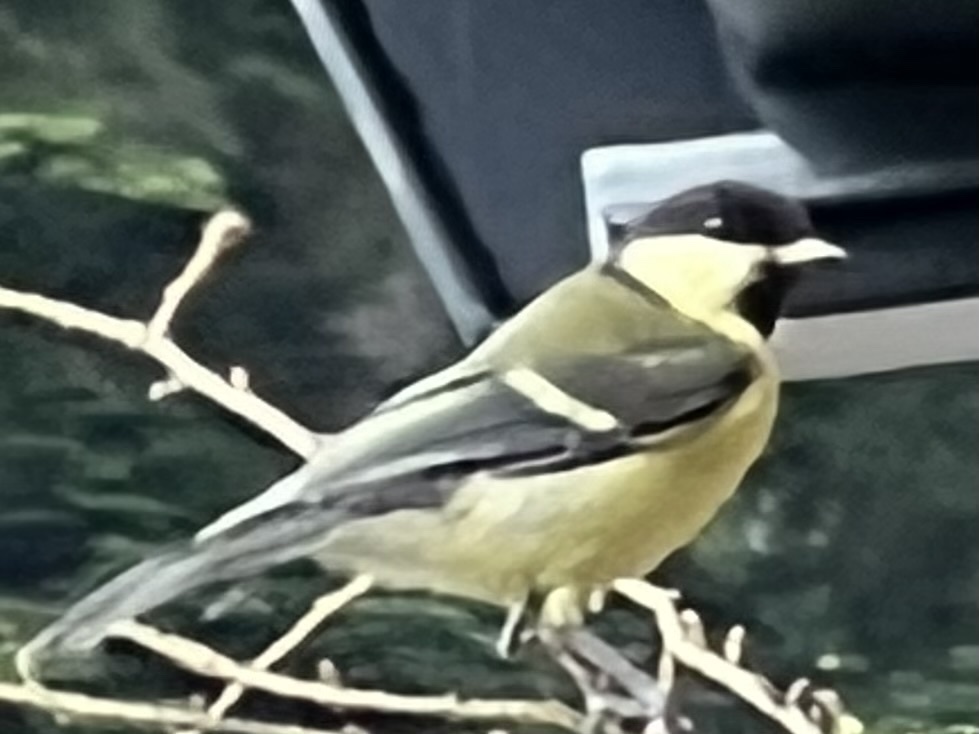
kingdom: Animalia
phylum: Chordata
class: Aves
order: Passeriformes
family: Paridae
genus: Parus
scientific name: Parus major
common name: Great tit
